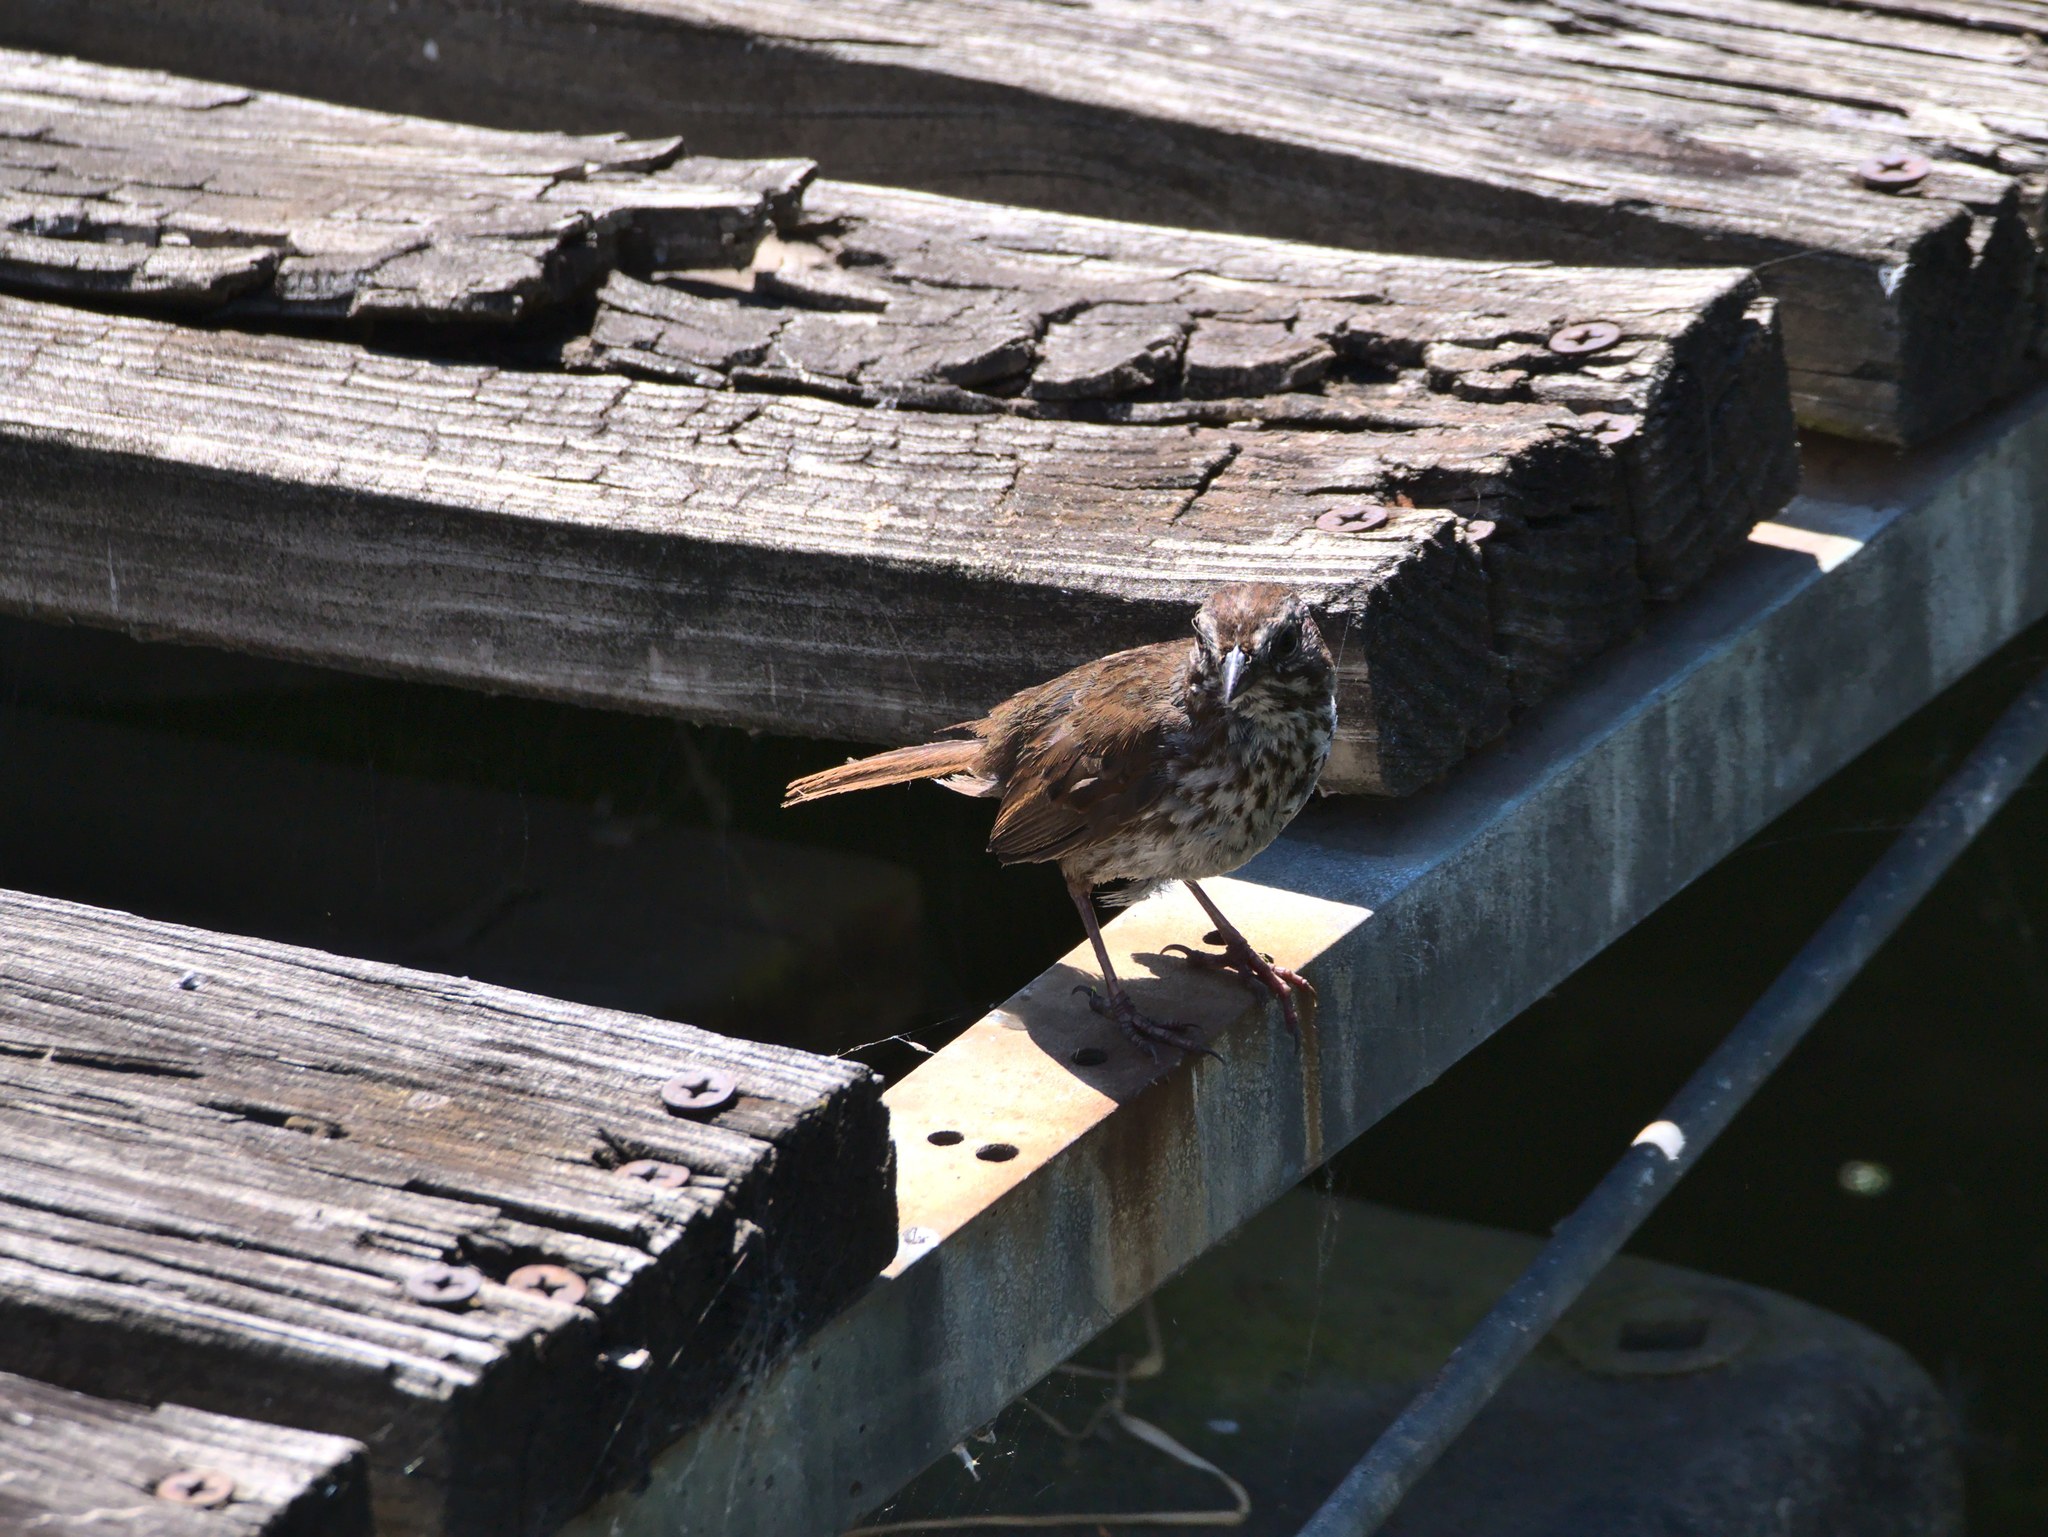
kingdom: Animalia
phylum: Chordata
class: Aves
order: Passeriformes
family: Passerellidae
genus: Melospiza
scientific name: Melospiza melodia
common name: Song sparrow
